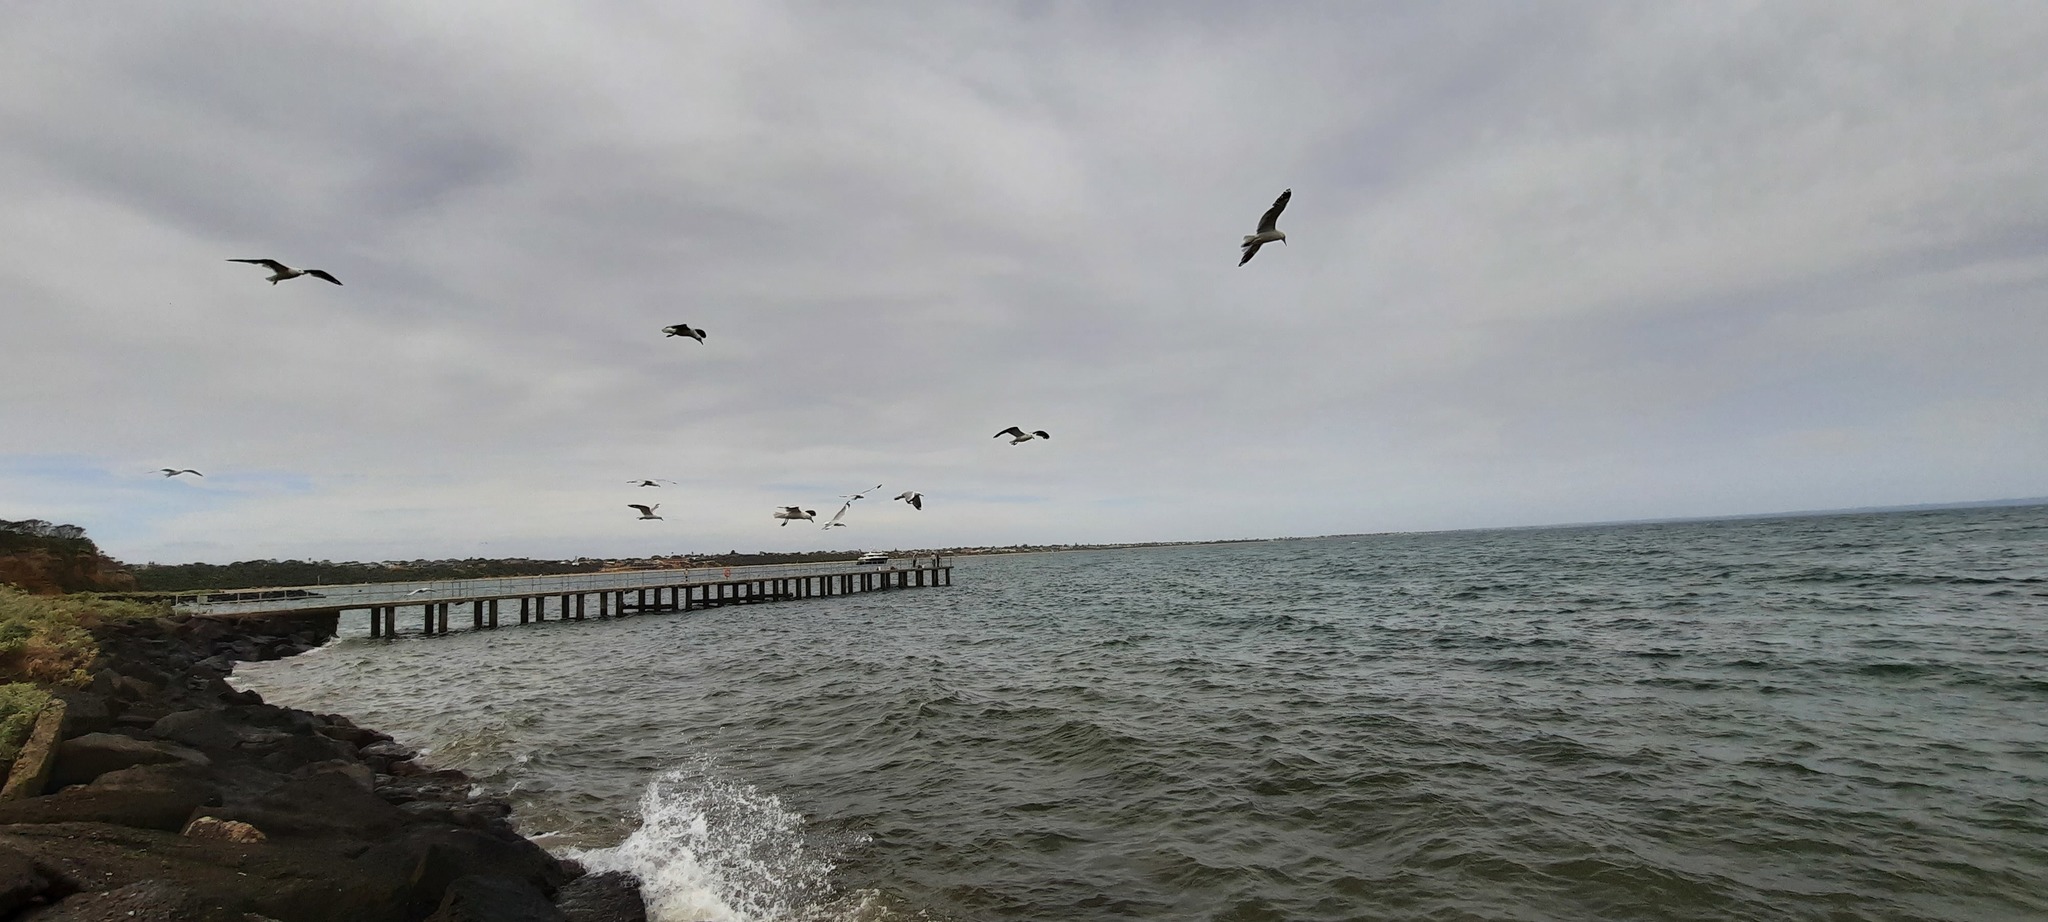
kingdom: Animalia
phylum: Chordata
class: Aves
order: Charadriiformes
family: Laridae
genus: Chroicocephalus
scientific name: Chroicocephalus novaehollandiae
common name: Silver gull
